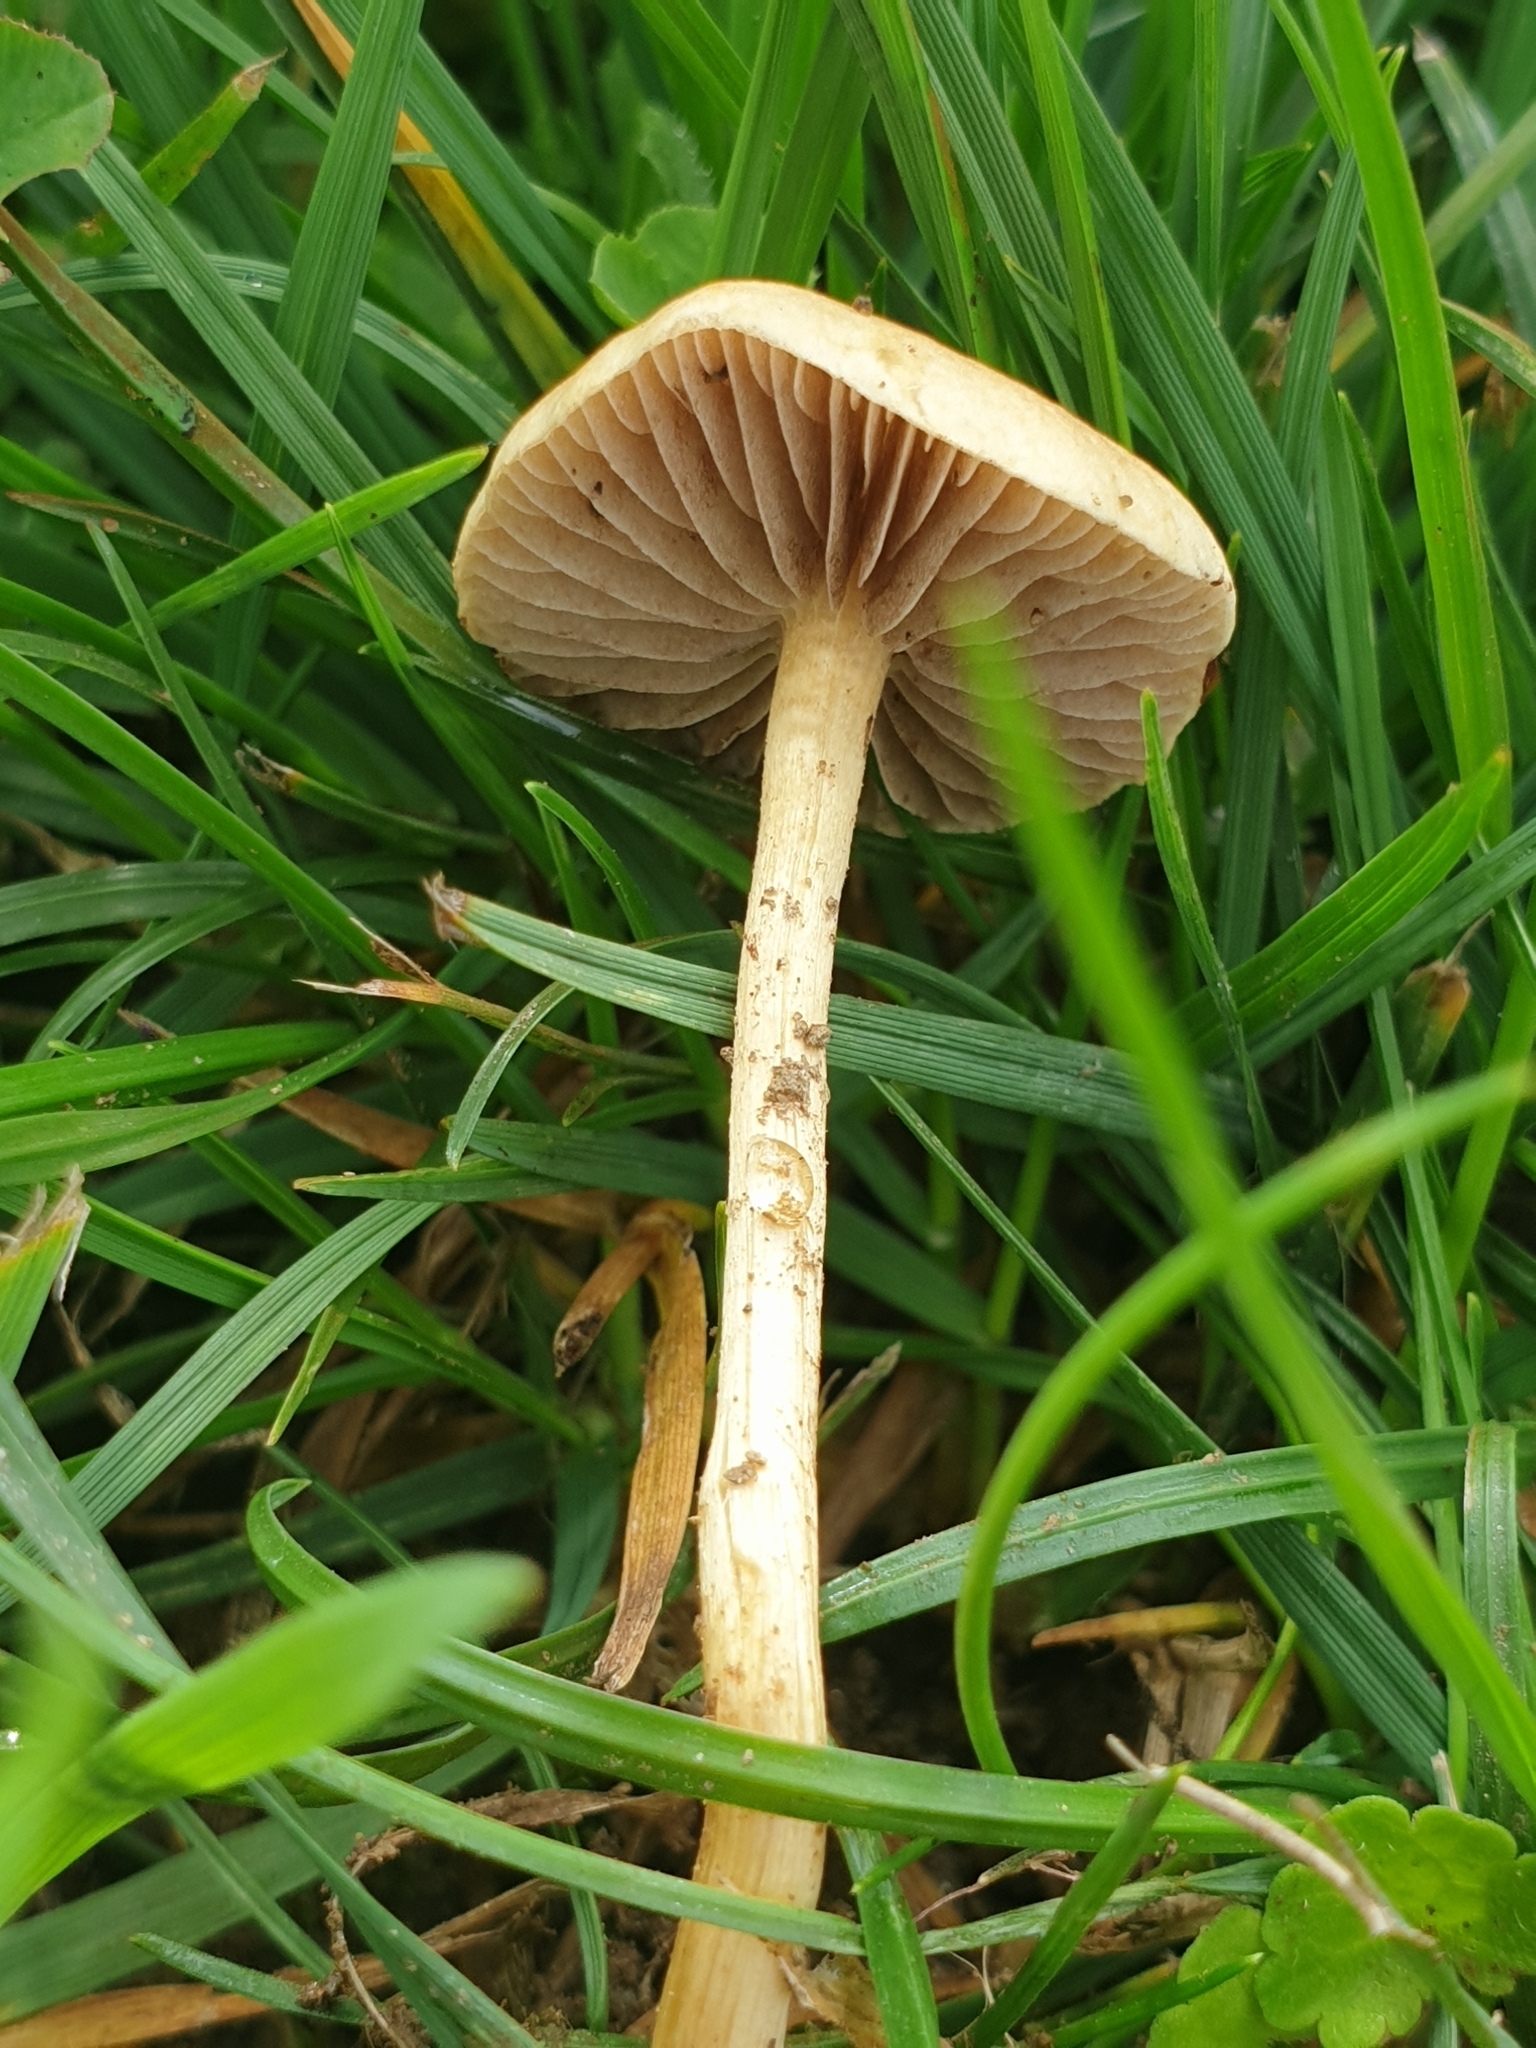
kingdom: Fungi
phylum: Basidiomycota
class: Agaricomycetes
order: Agaricales
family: Strophariaceae
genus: Agrocybe
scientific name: Agrocybe pediades
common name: Common fieldcap
